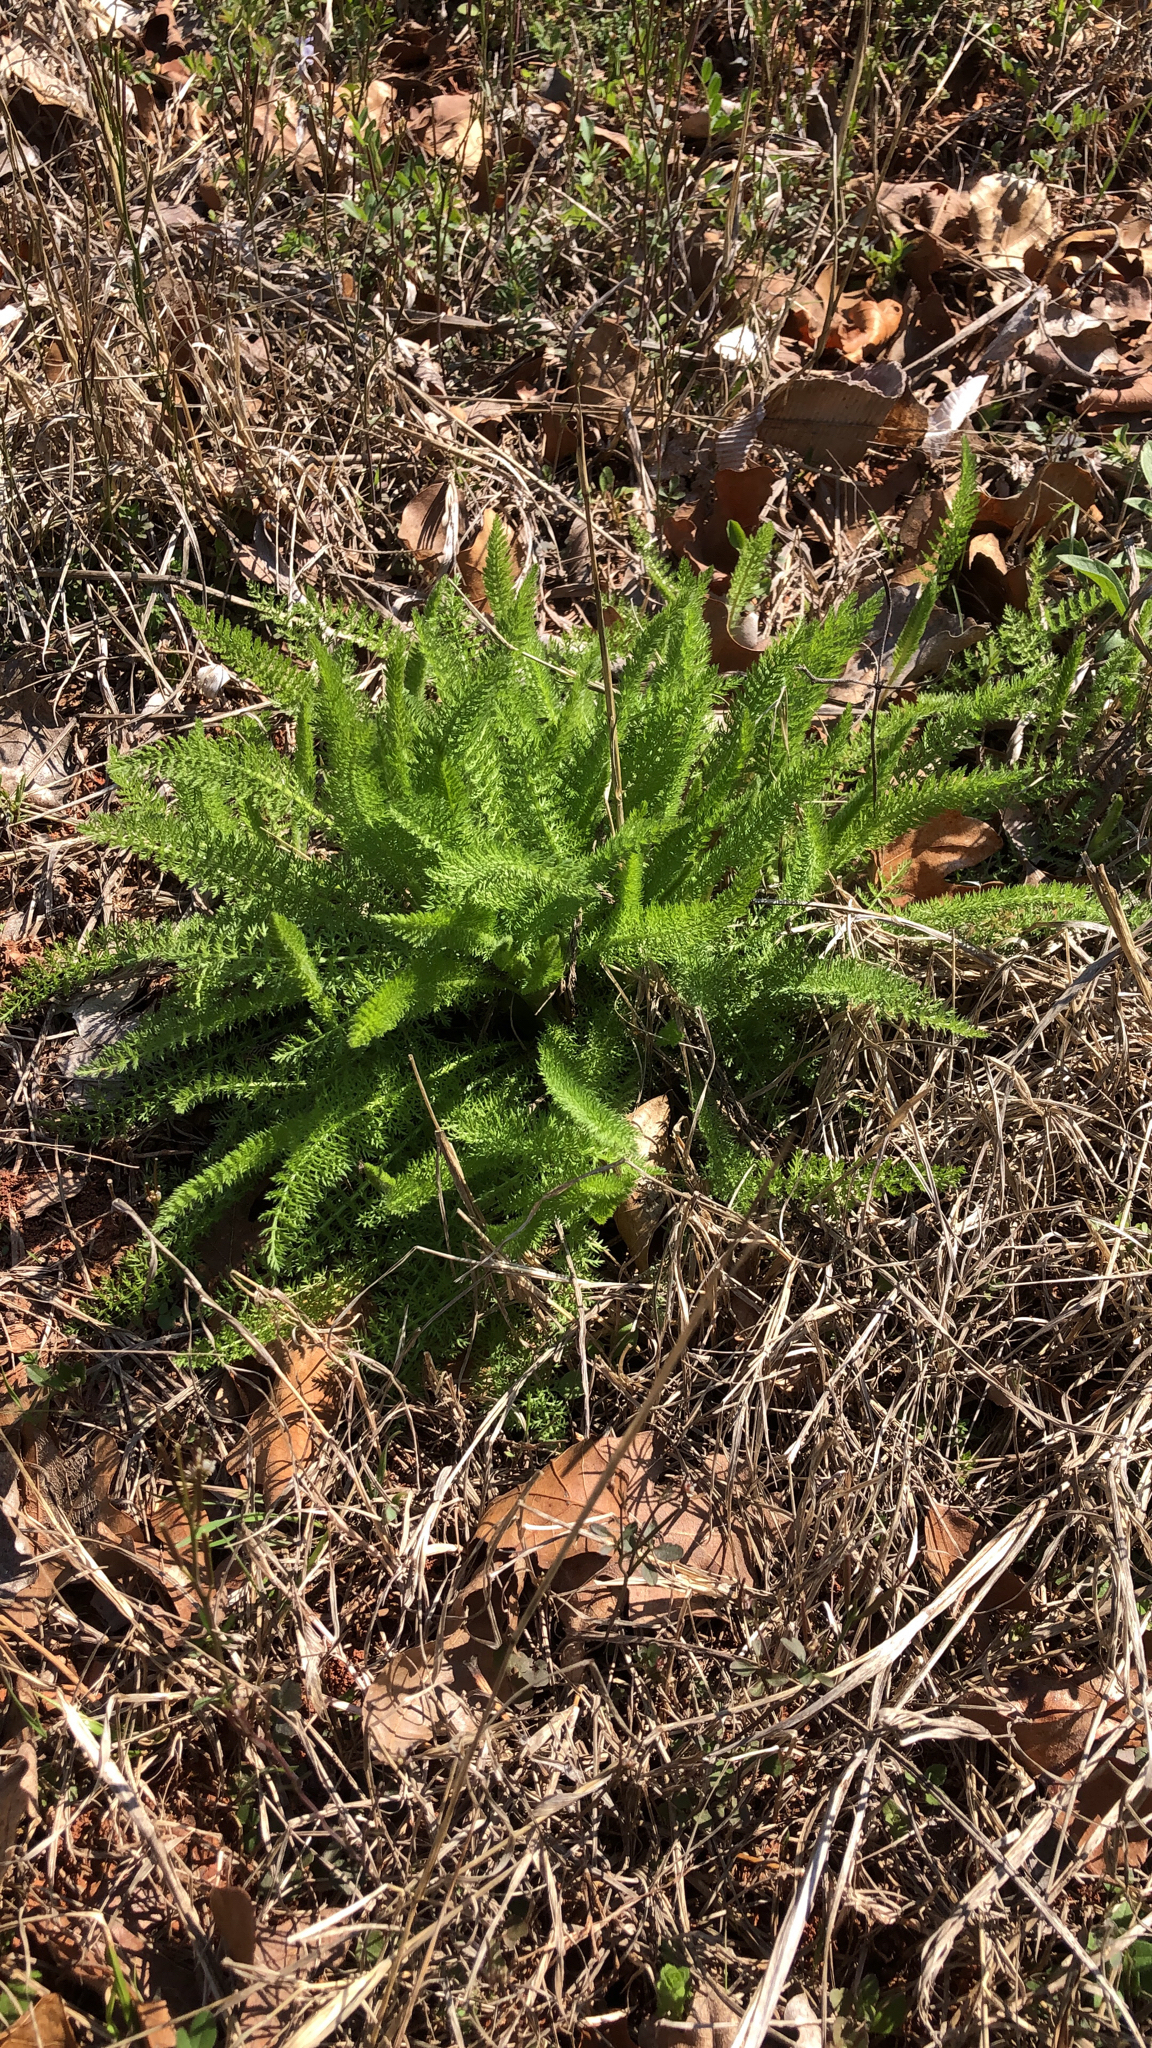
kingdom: Plantae
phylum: Tracheophyta
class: Magnoliopsida
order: Asterales
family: Asteraceae
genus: Achillea
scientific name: Achillea millefolium
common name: Yarrow
